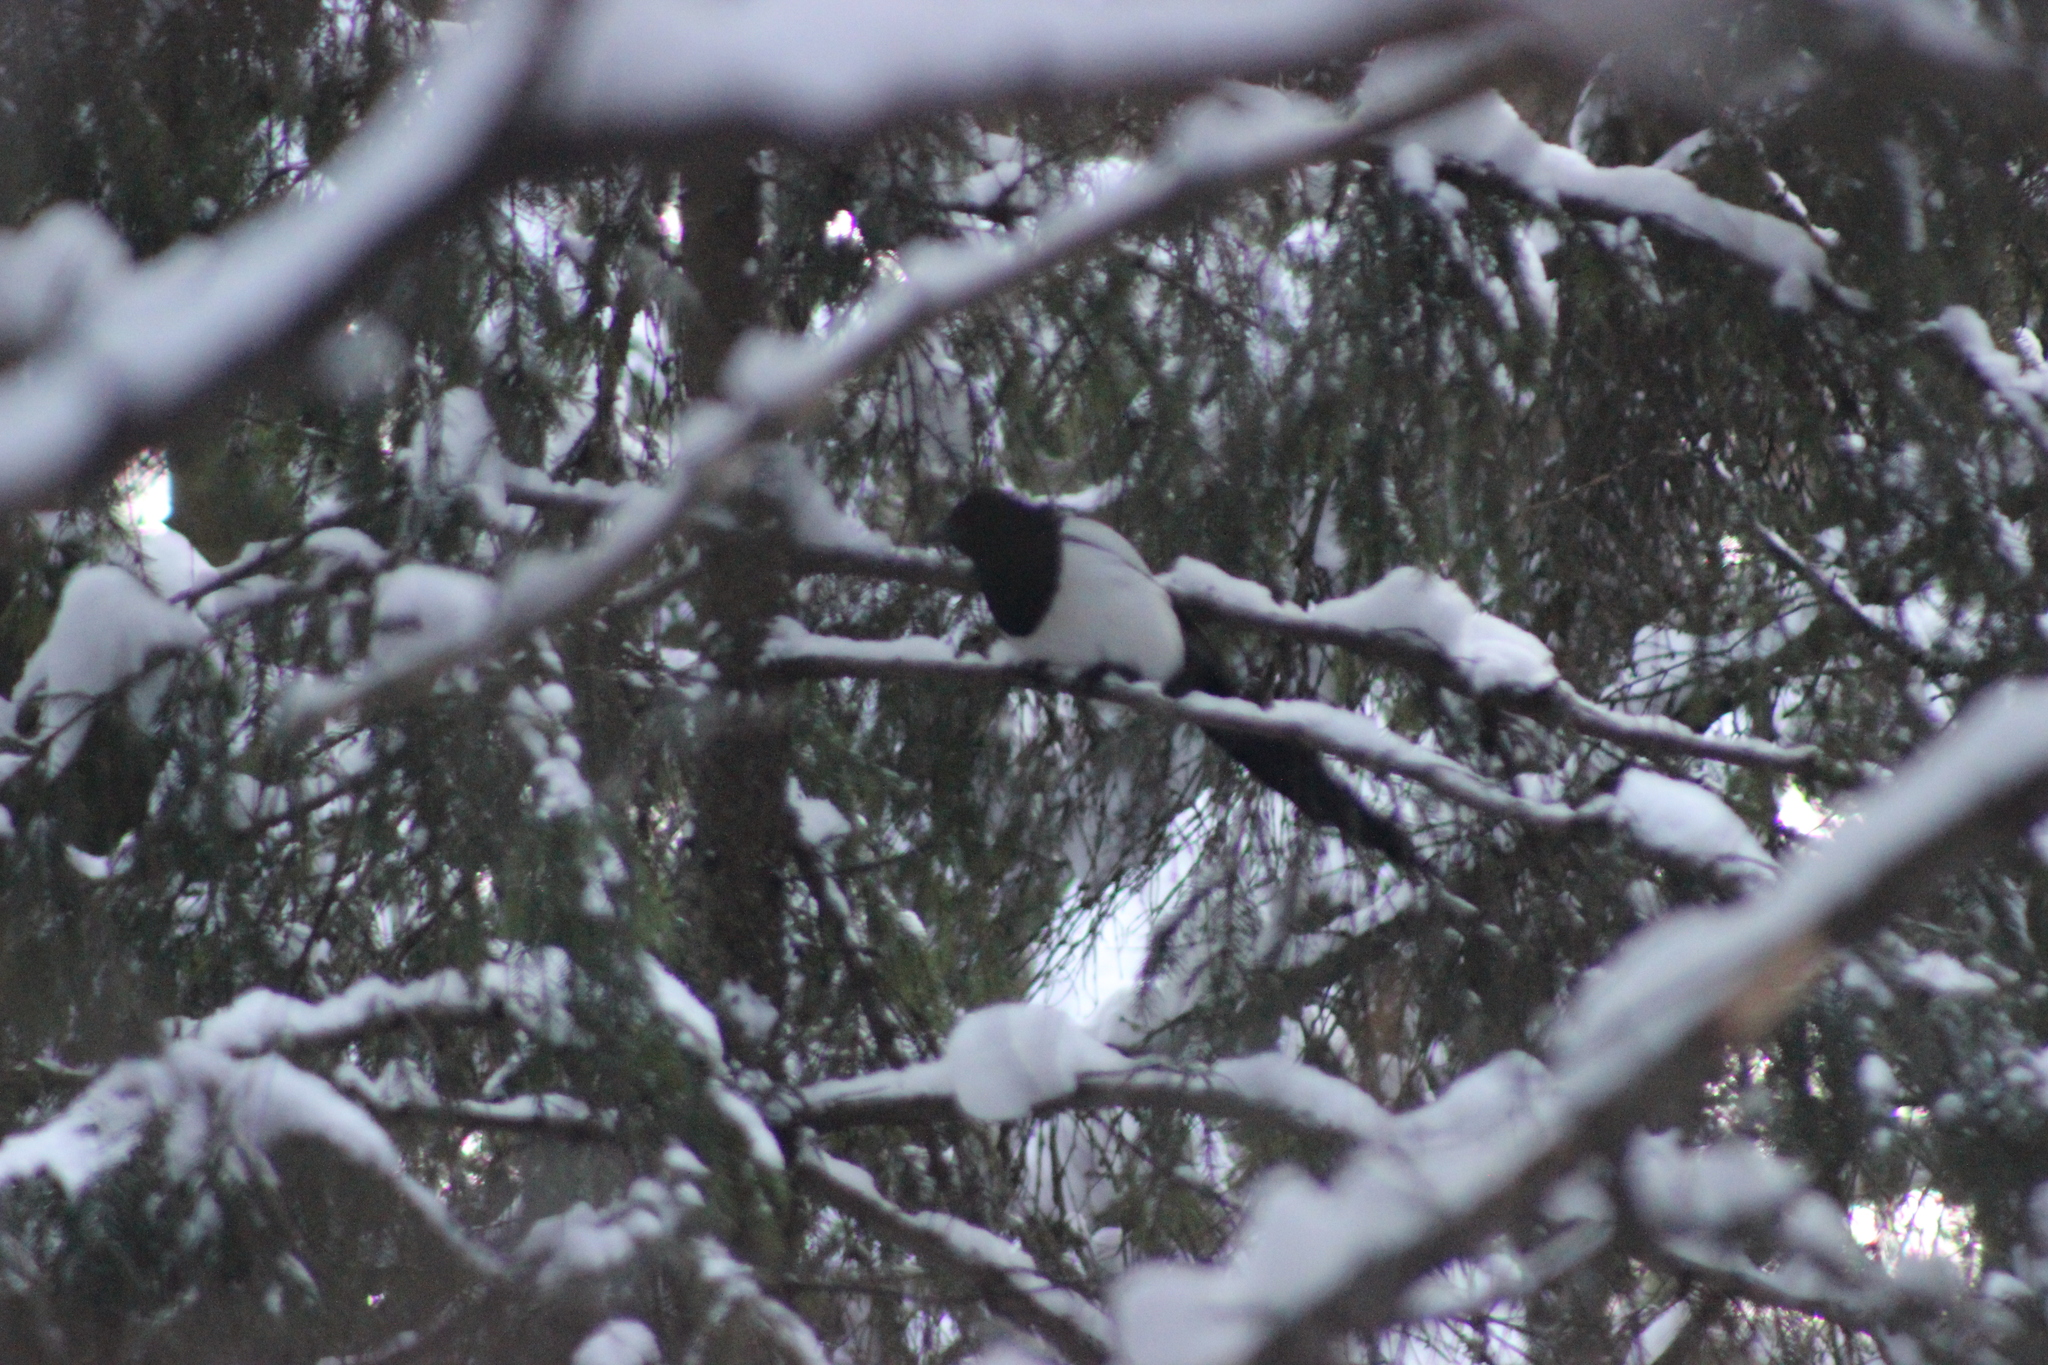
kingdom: Animalia
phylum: Chordata
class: Aves
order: Passeriformes
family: Corvidae
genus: Pica
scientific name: Pica pica
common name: Eurasian magpie
